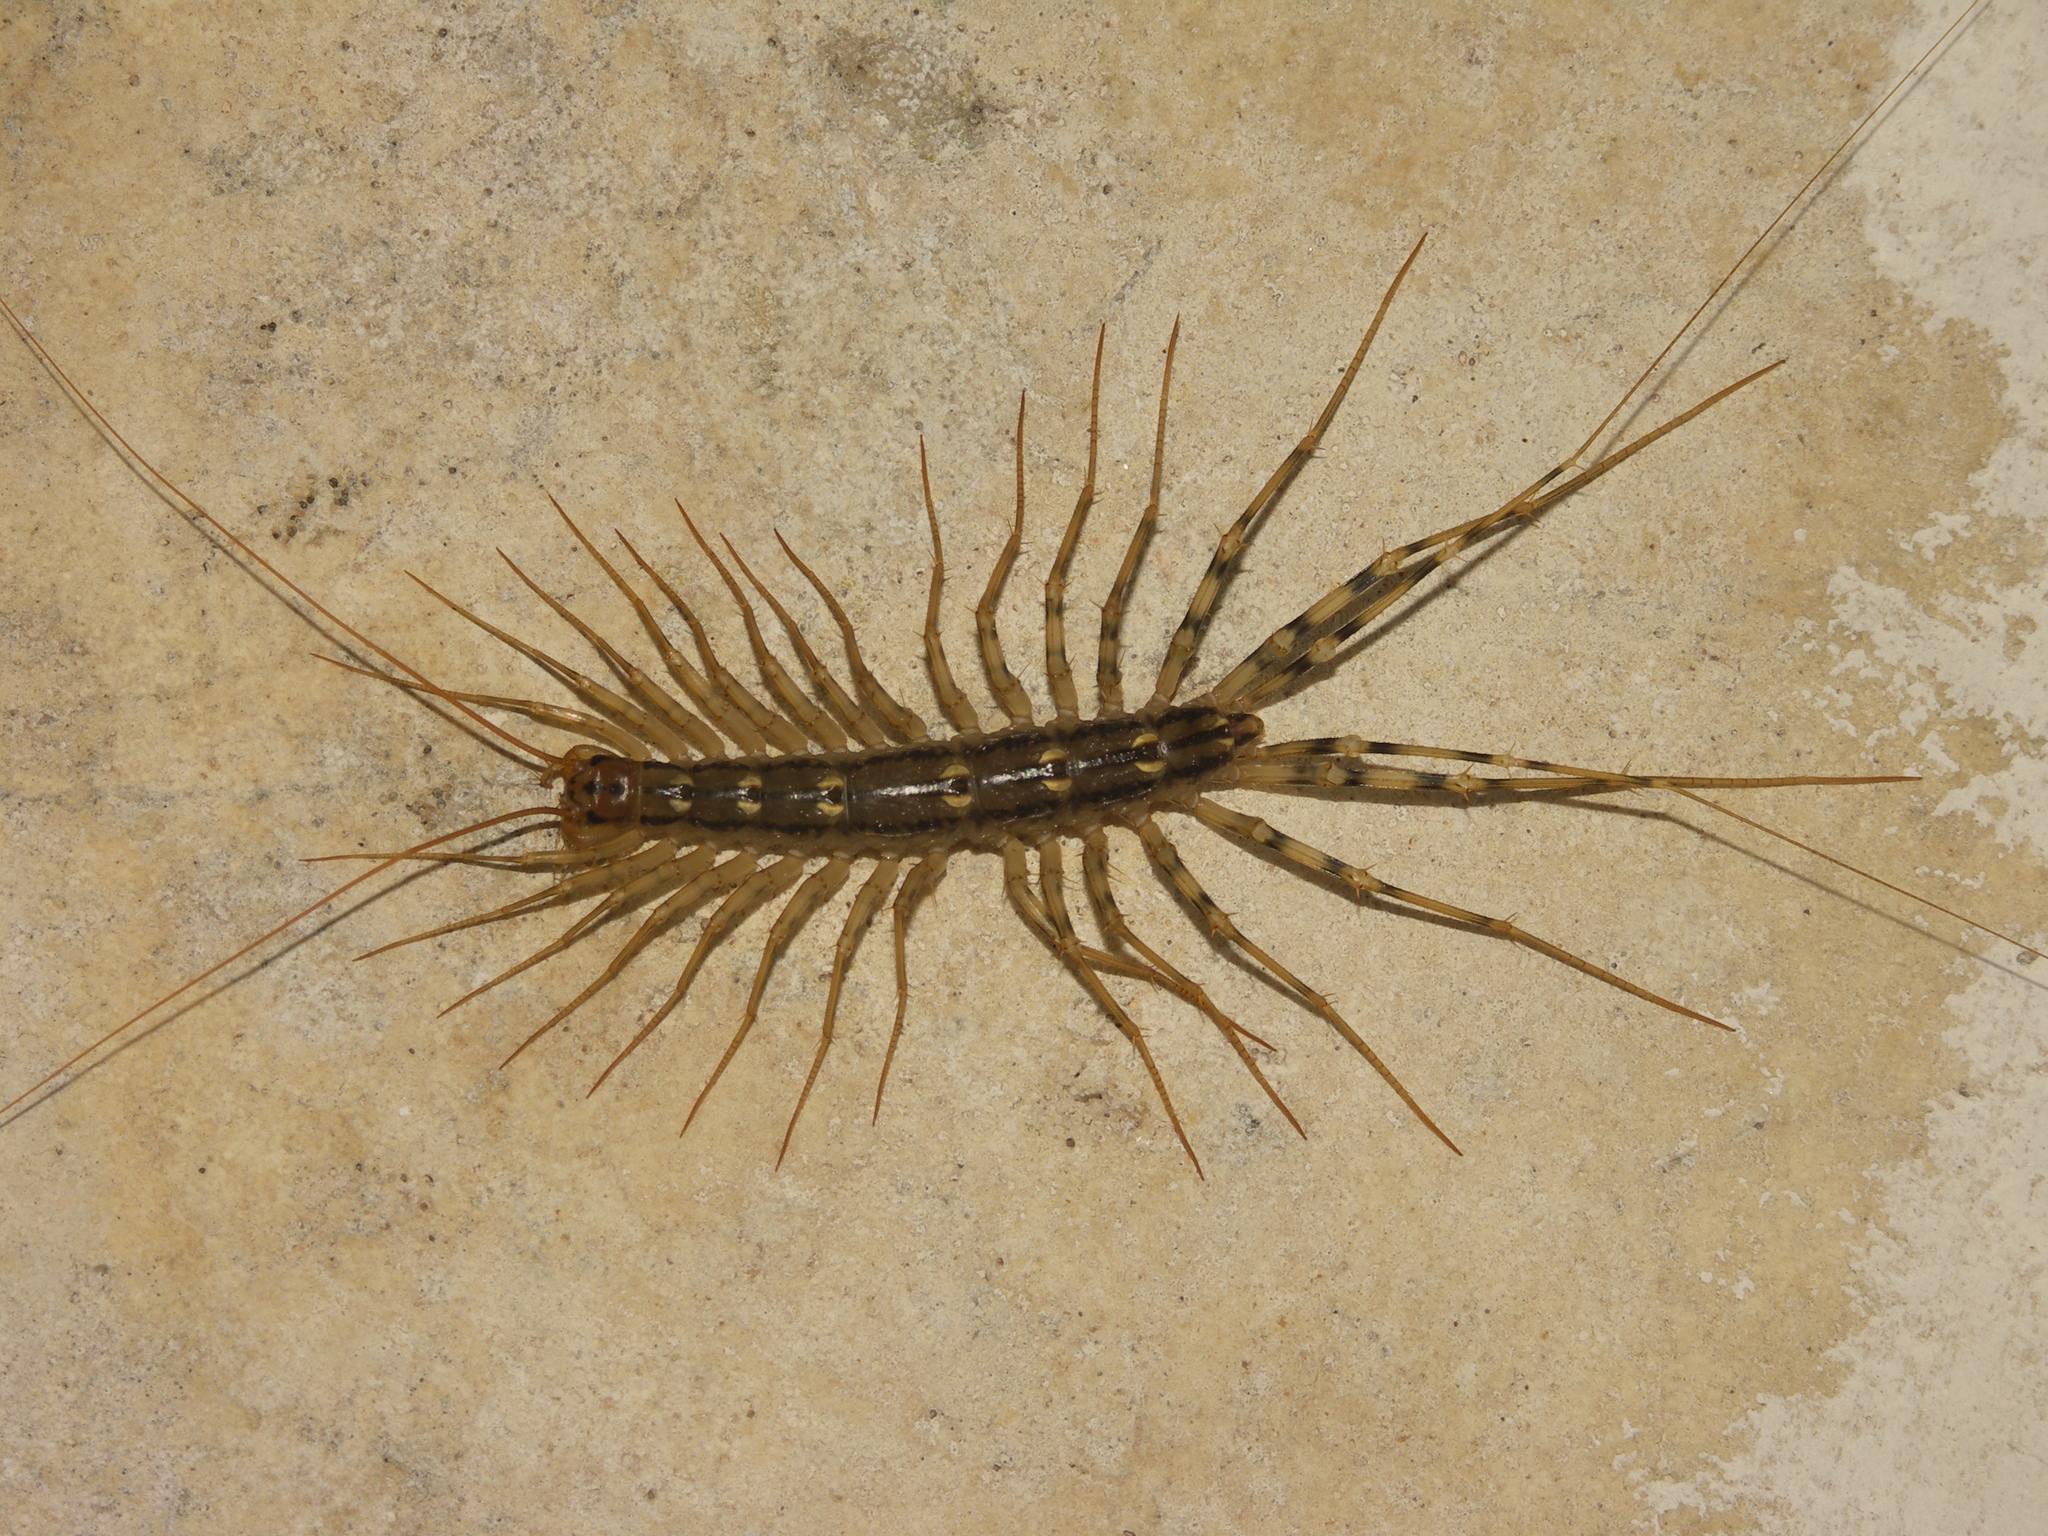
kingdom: Animalia
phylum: Arthropoda
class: Chilopoda
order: Scutigeromorpha
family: Scutigeridae
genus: Scutigera
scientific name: Scutigera coleoptrata
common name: House centipede
